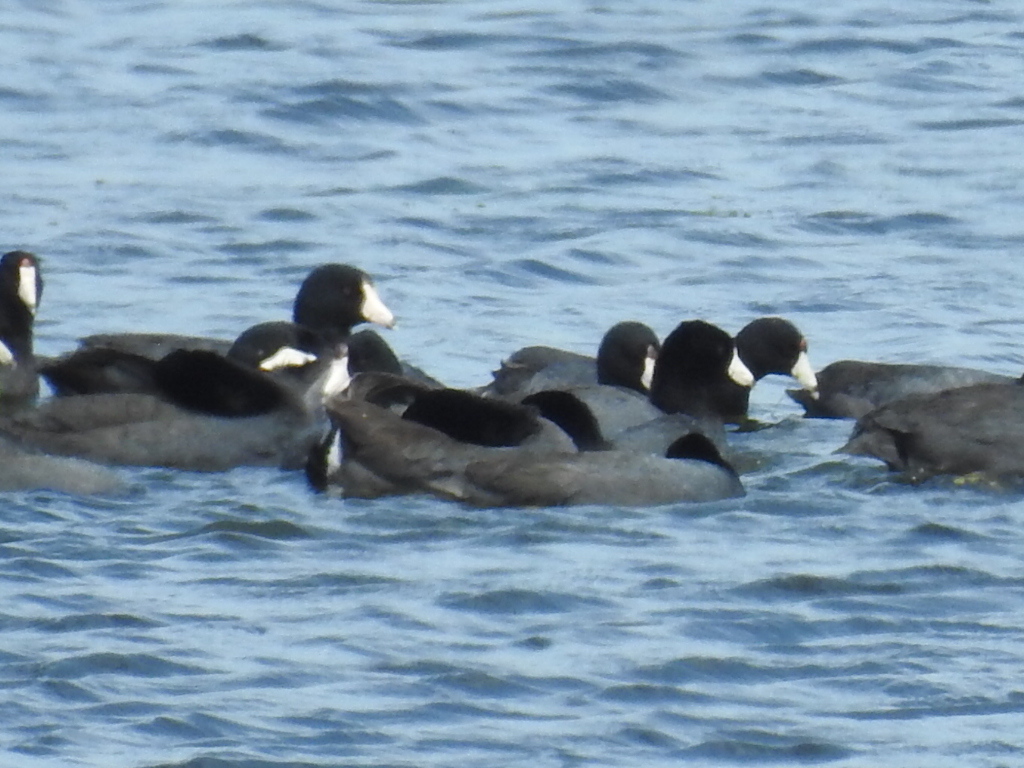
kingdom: Animalia
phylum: Chordata
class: Aves
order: Gruiformes
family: Rallidae
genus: Fulica
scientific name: Fulica americana
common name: American coot
